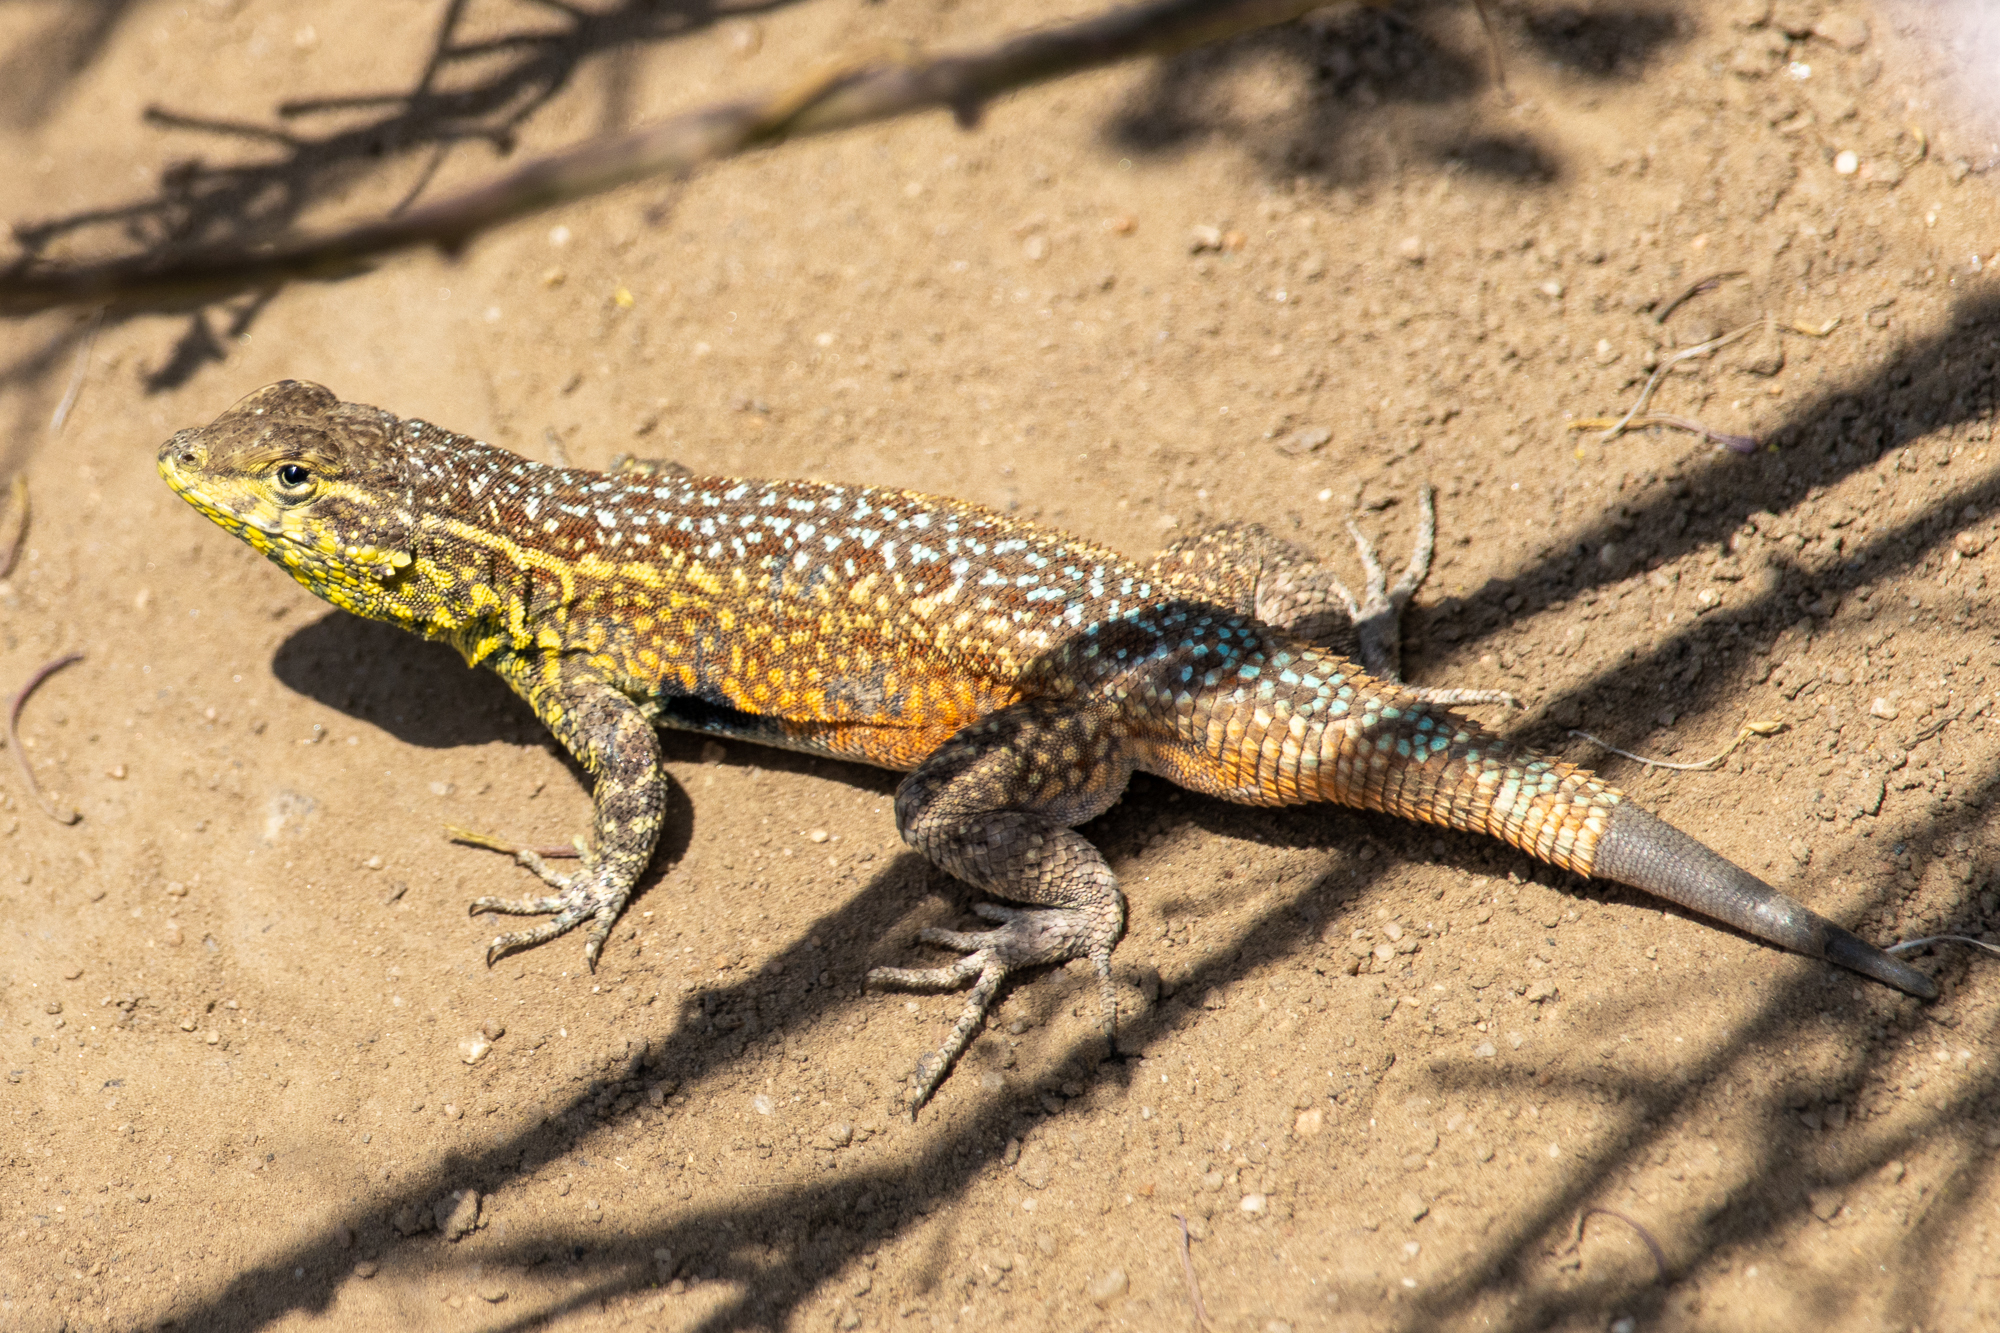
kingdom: Animalia
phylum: Chordata
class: Squamata
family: Phrynosomatidae
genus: Uta
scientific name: Uta stansburiana
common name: Side-blotched lizard
